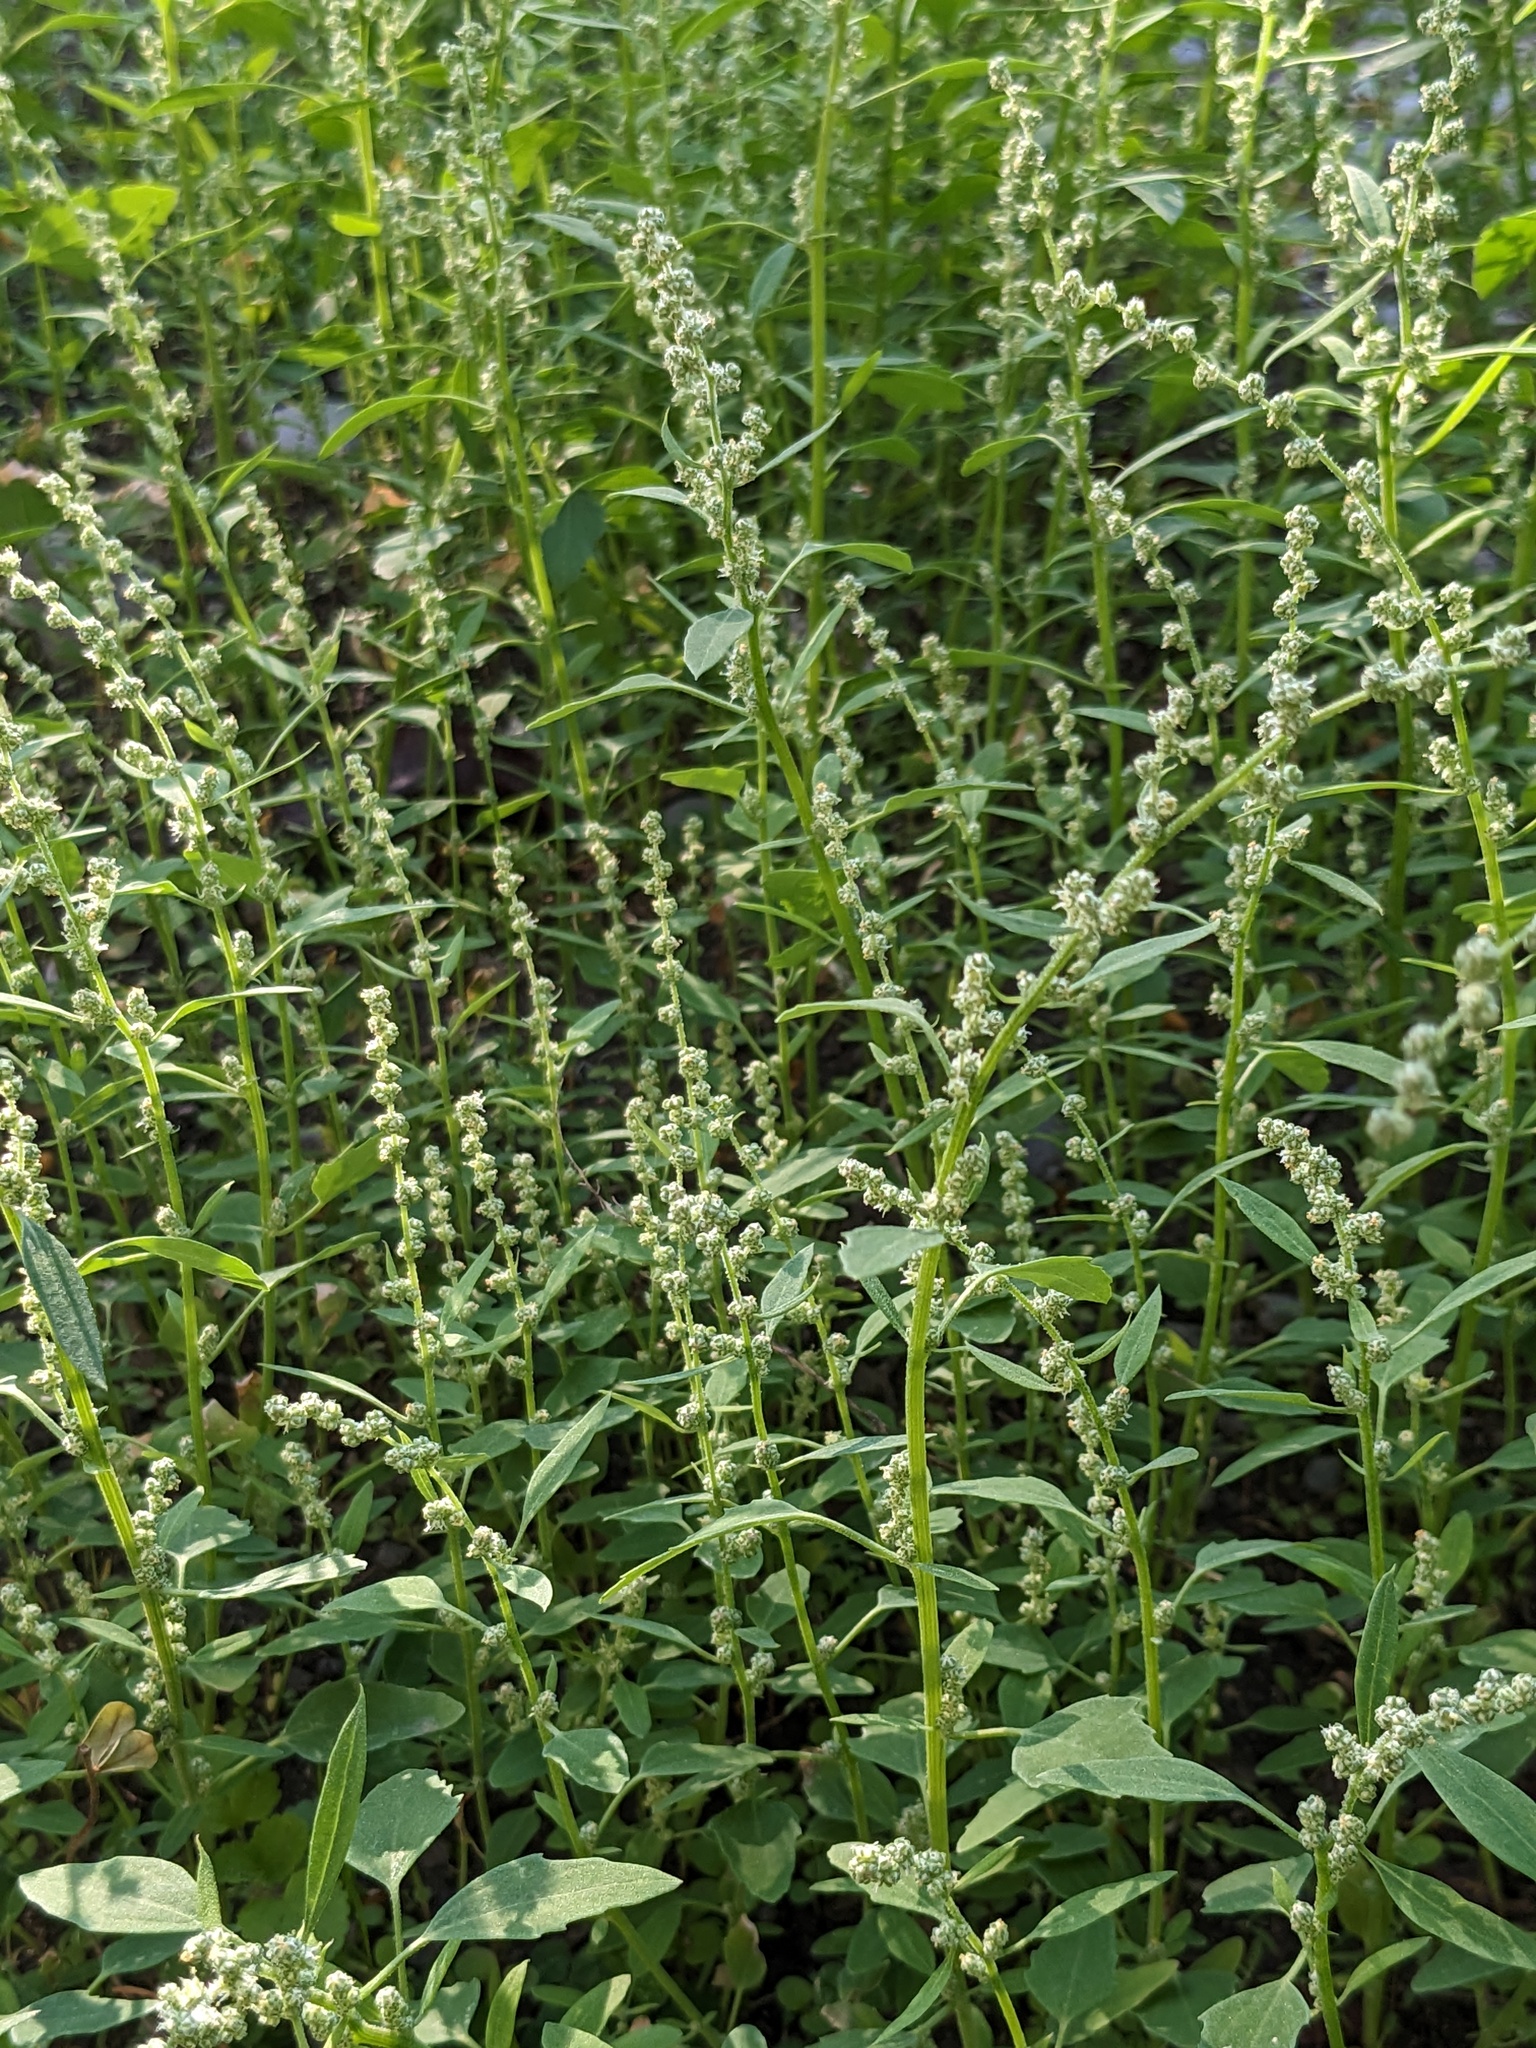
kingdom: Plantae
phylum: Tracheophyta
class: Magnoliopsida
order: Caryophyllales
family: Amaranthaceae
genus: Chenopodium
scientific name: Chenopodium album
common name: Fat-hen
